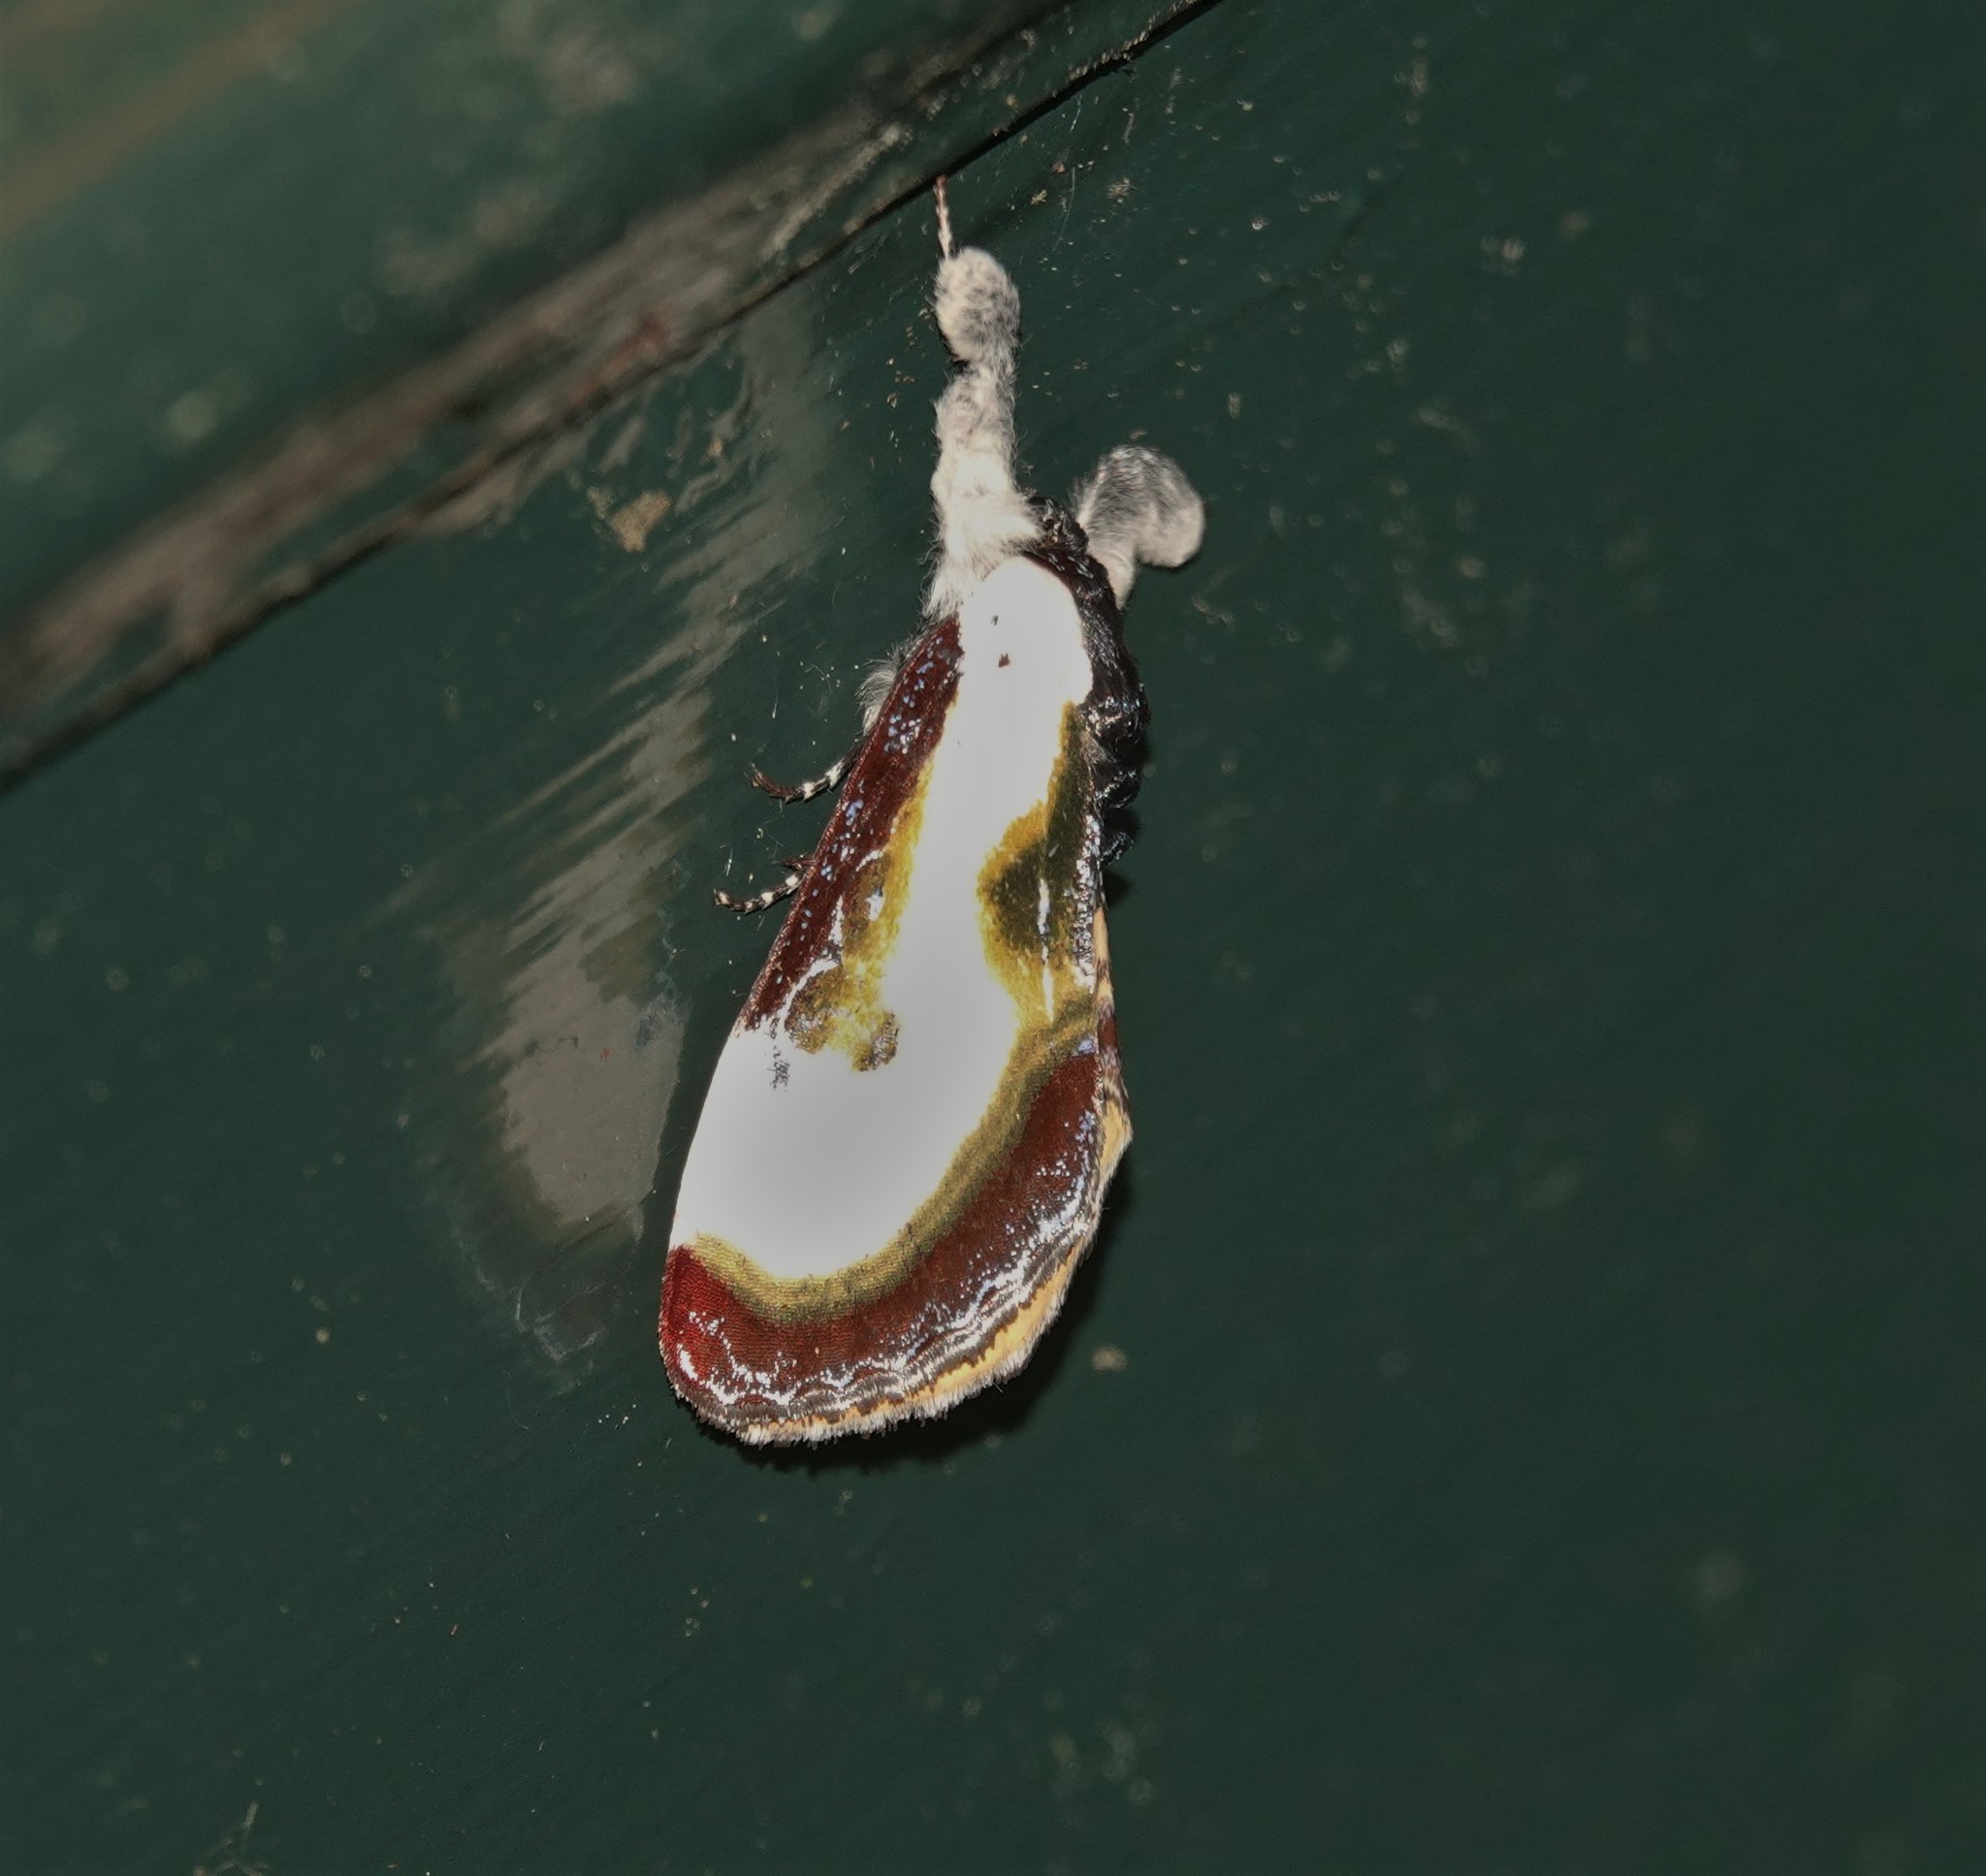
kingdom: Animalia
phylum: Arthropoda
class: Insecta
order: Lepidoptera
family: Noctuidae
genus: Eudryas
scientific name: Eudryas grata
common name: Beautiful wood-nymph
